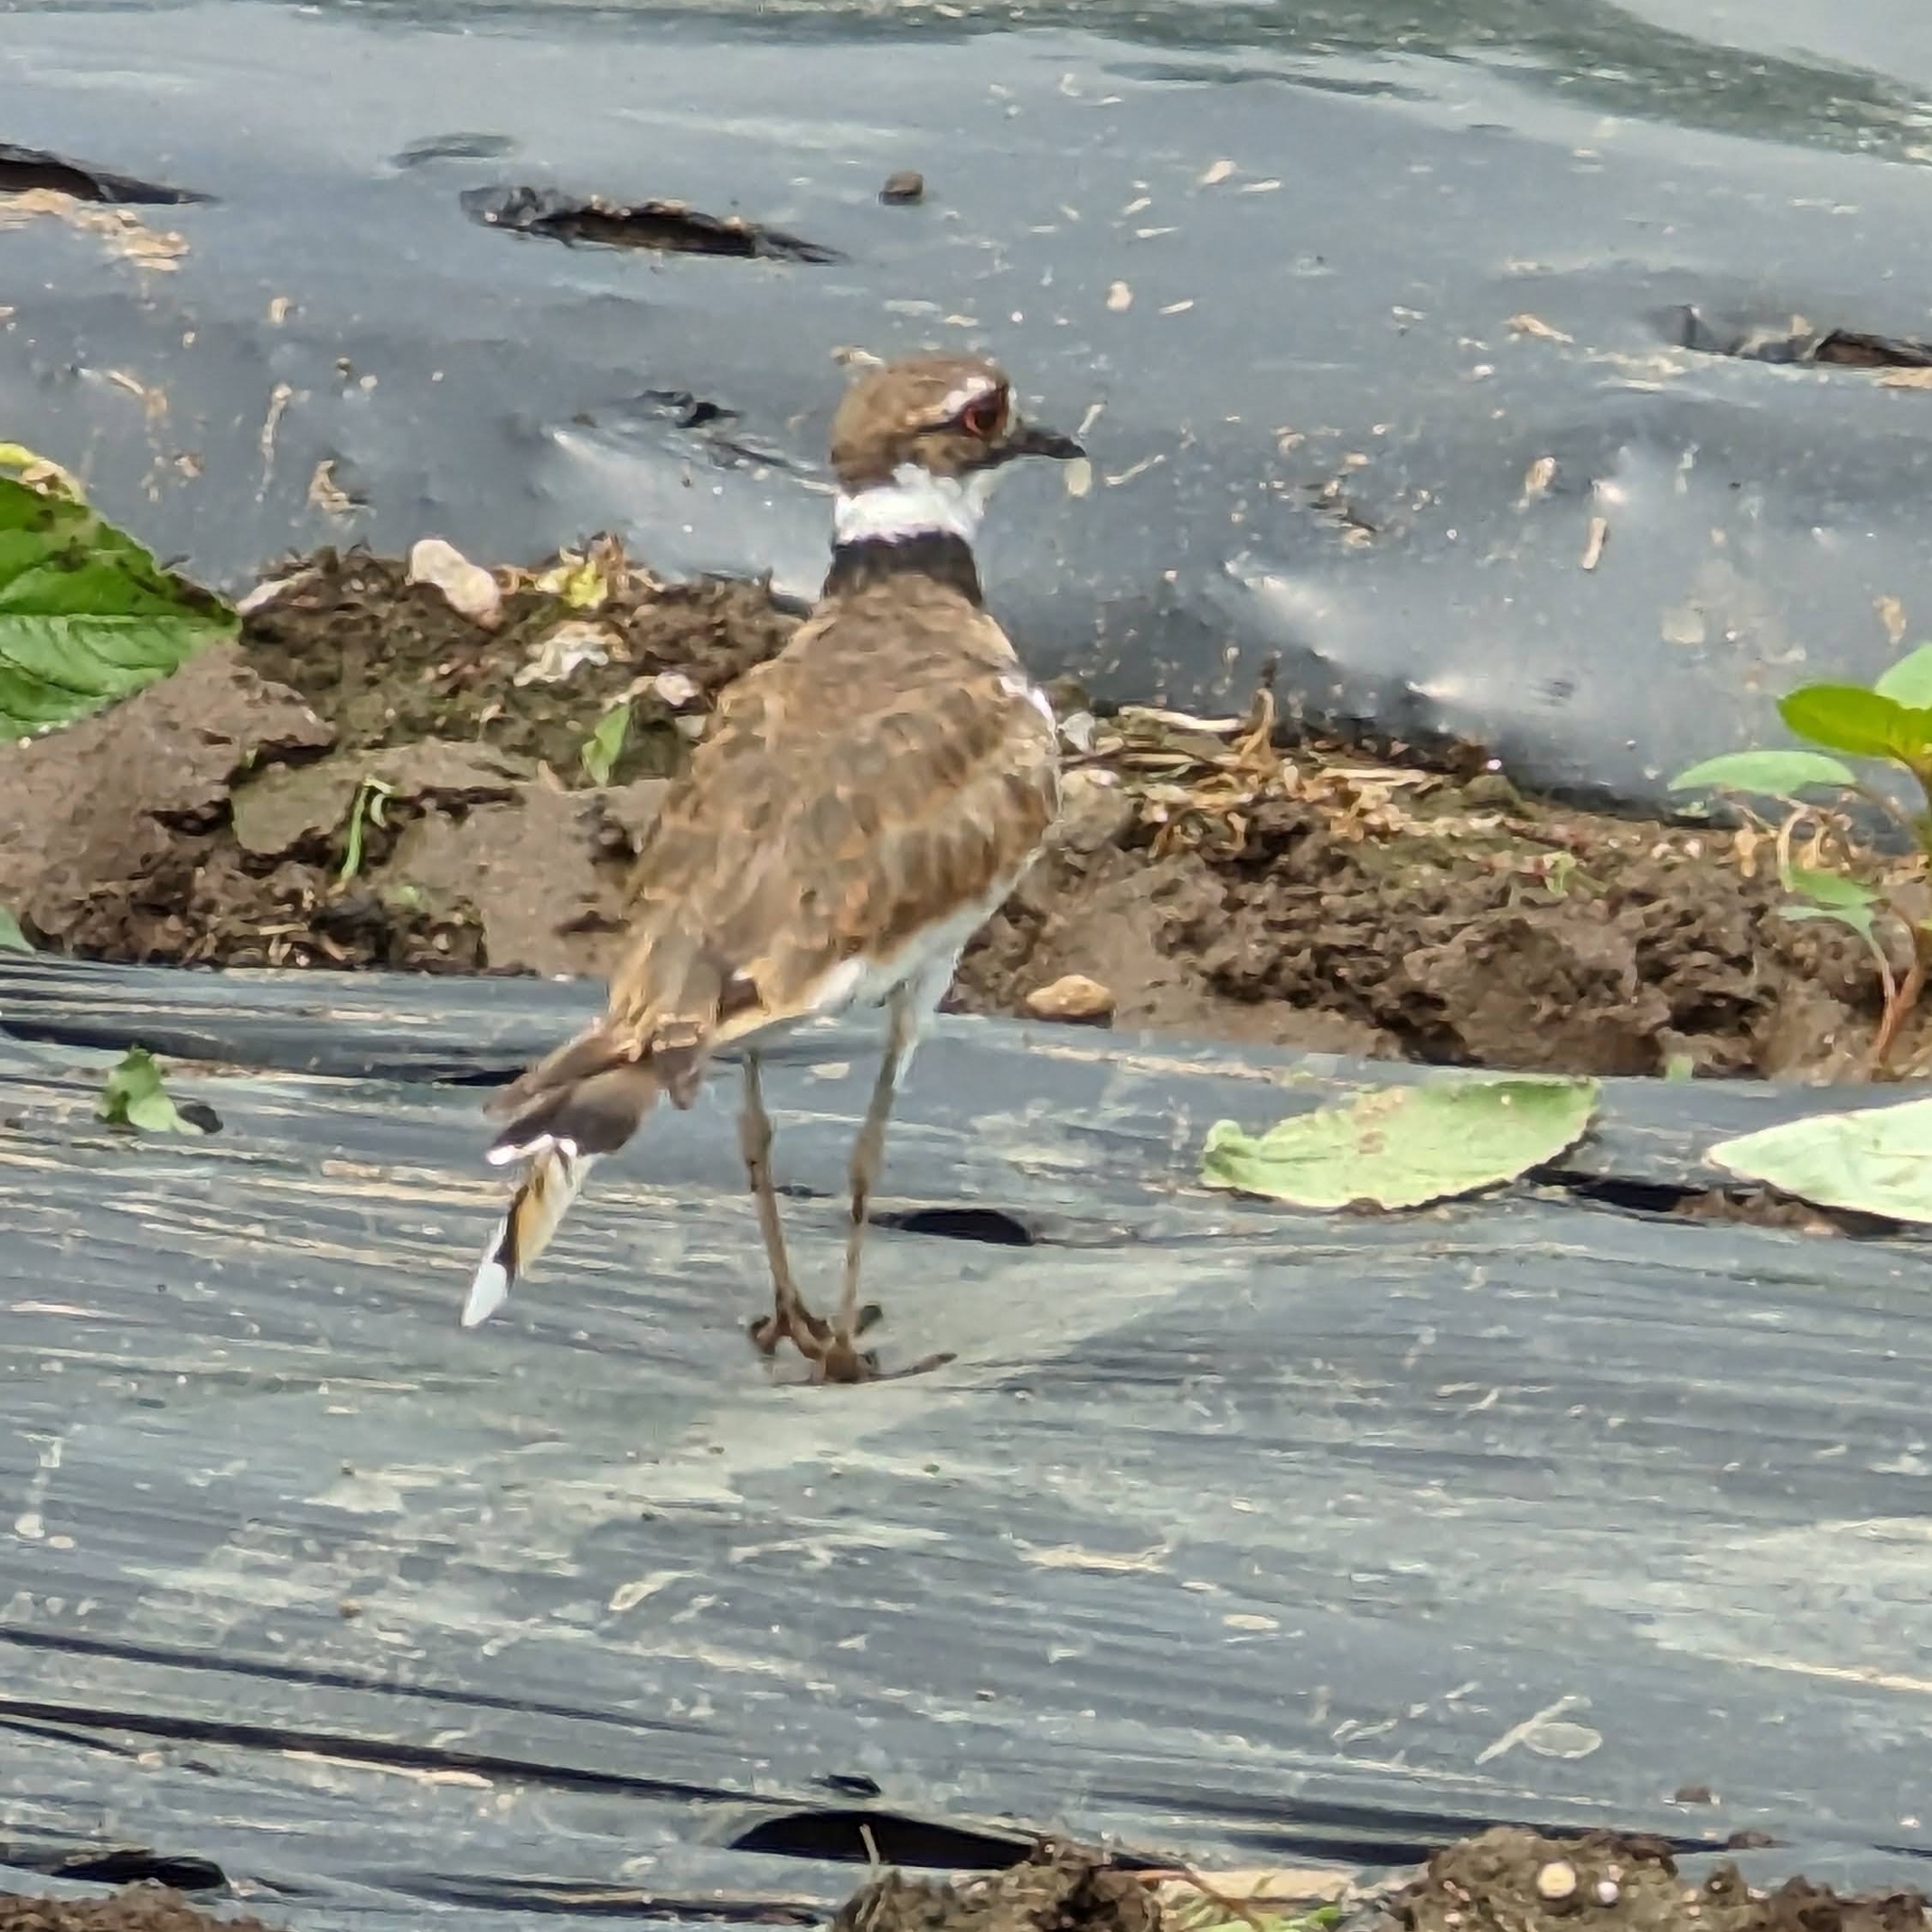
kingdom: Animalia
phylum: Chordata
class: Aves
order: Charadriiformes
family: Charadriidae
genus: Charadrius
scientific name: Charadrius vociferus
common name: Killdeer
